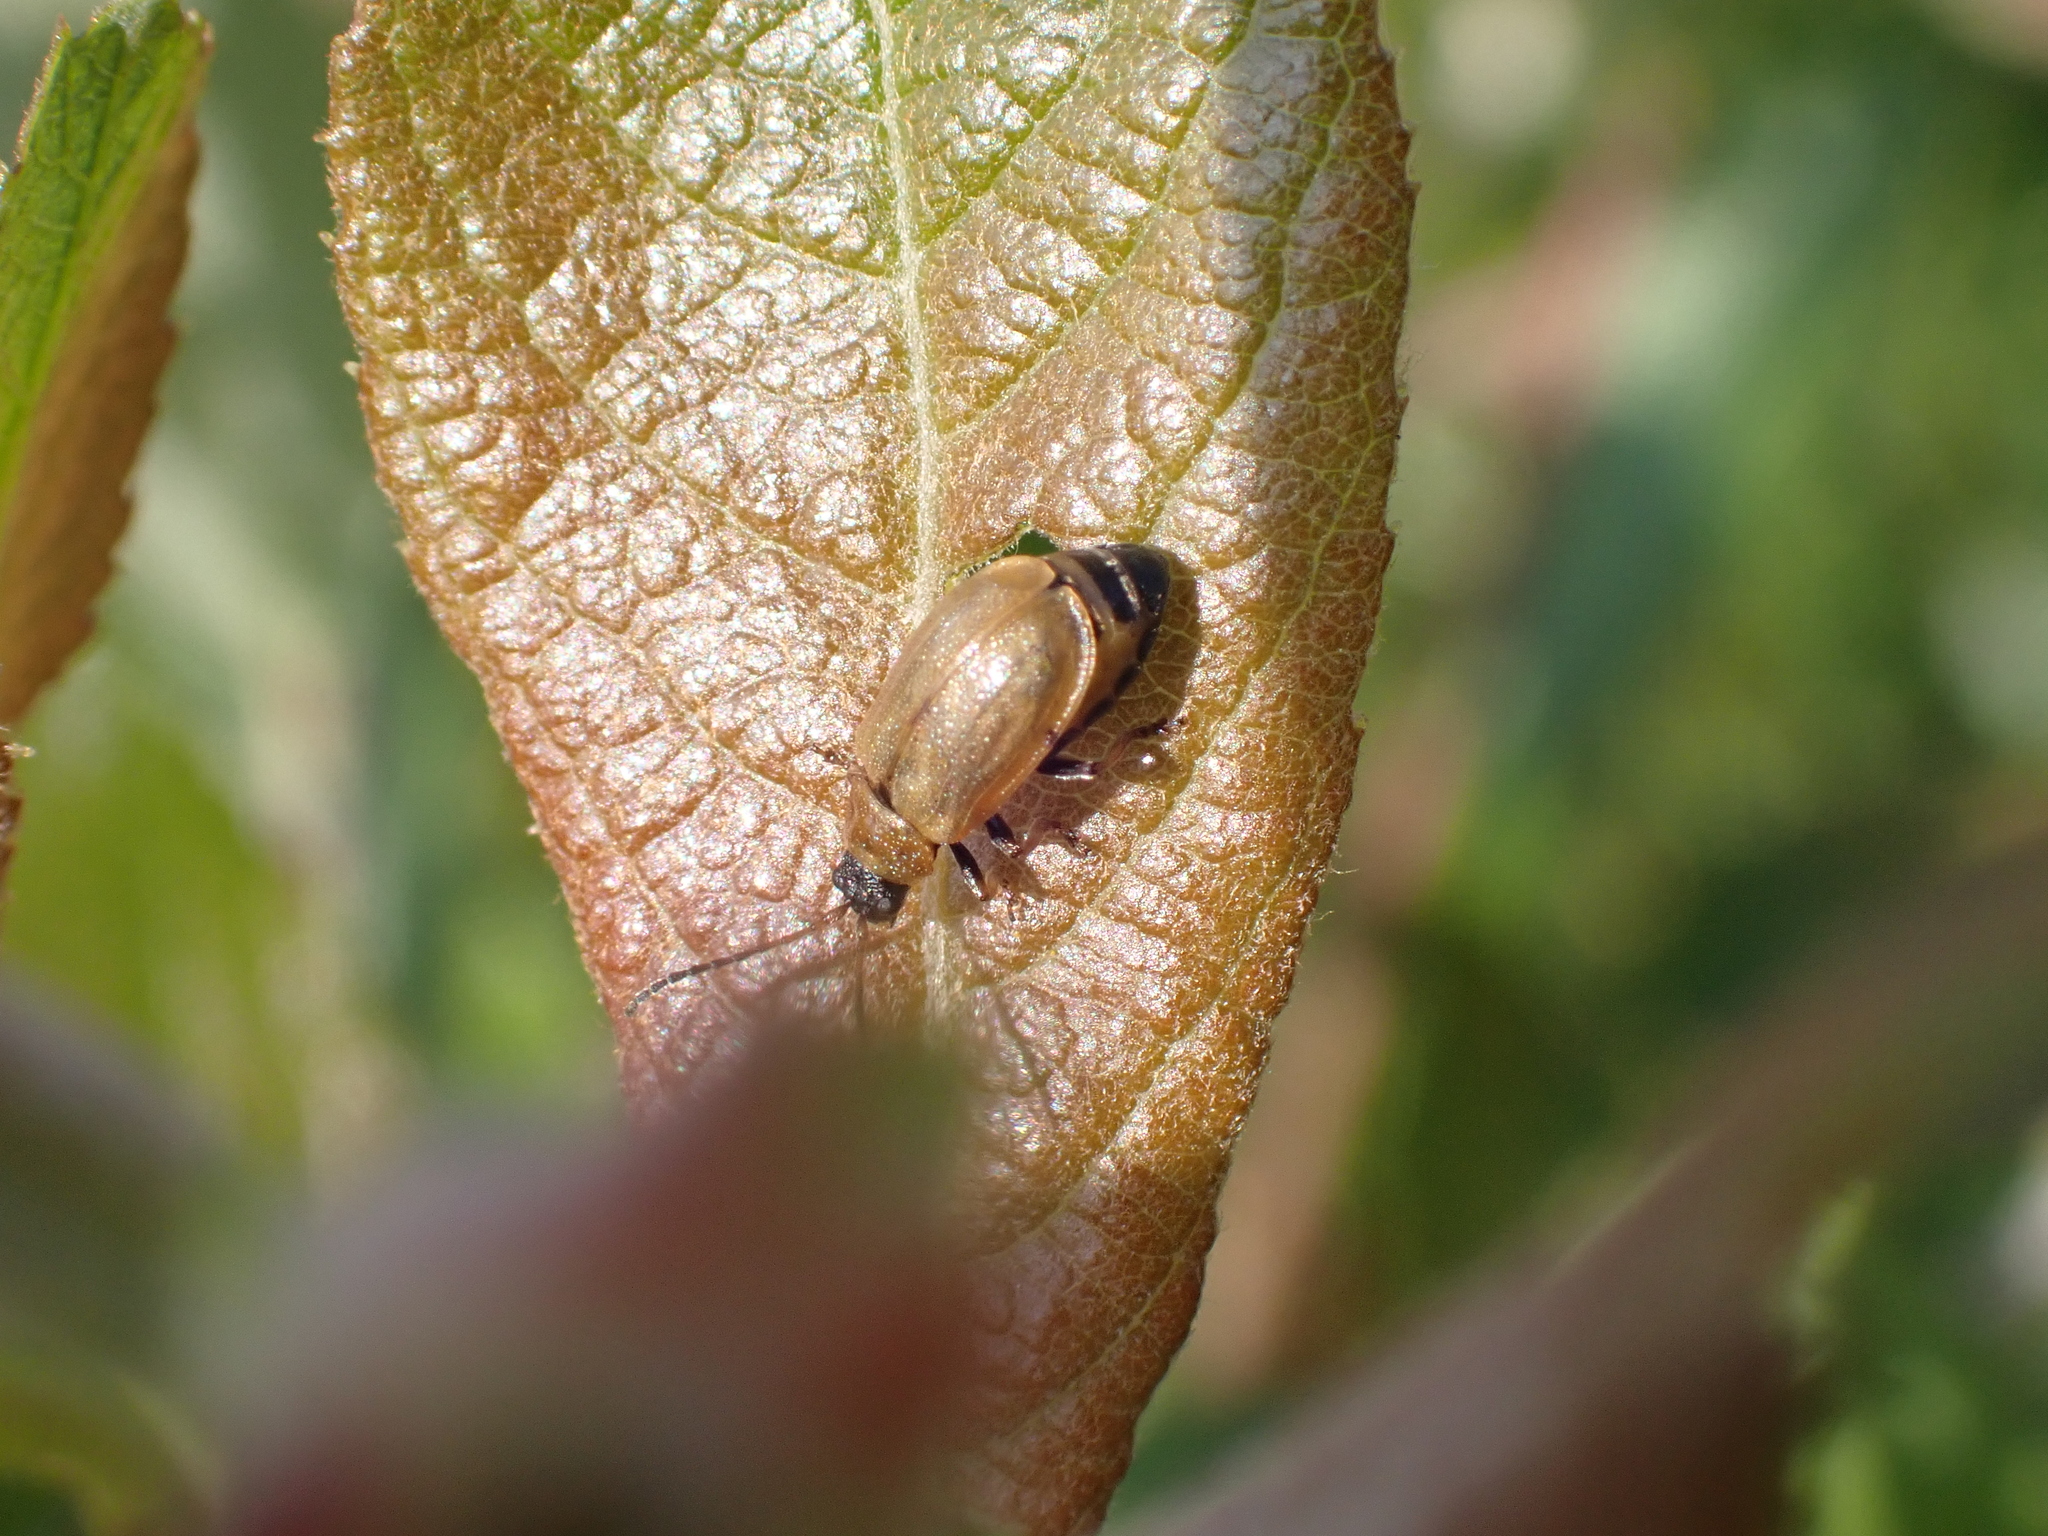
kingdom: Animalia
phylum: Arthropoda
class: Insecta
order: Coleoptera
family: Chrysomelidae
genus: Lochmaea
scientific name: Lochmaea caprea
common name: Willow leaf beetle
